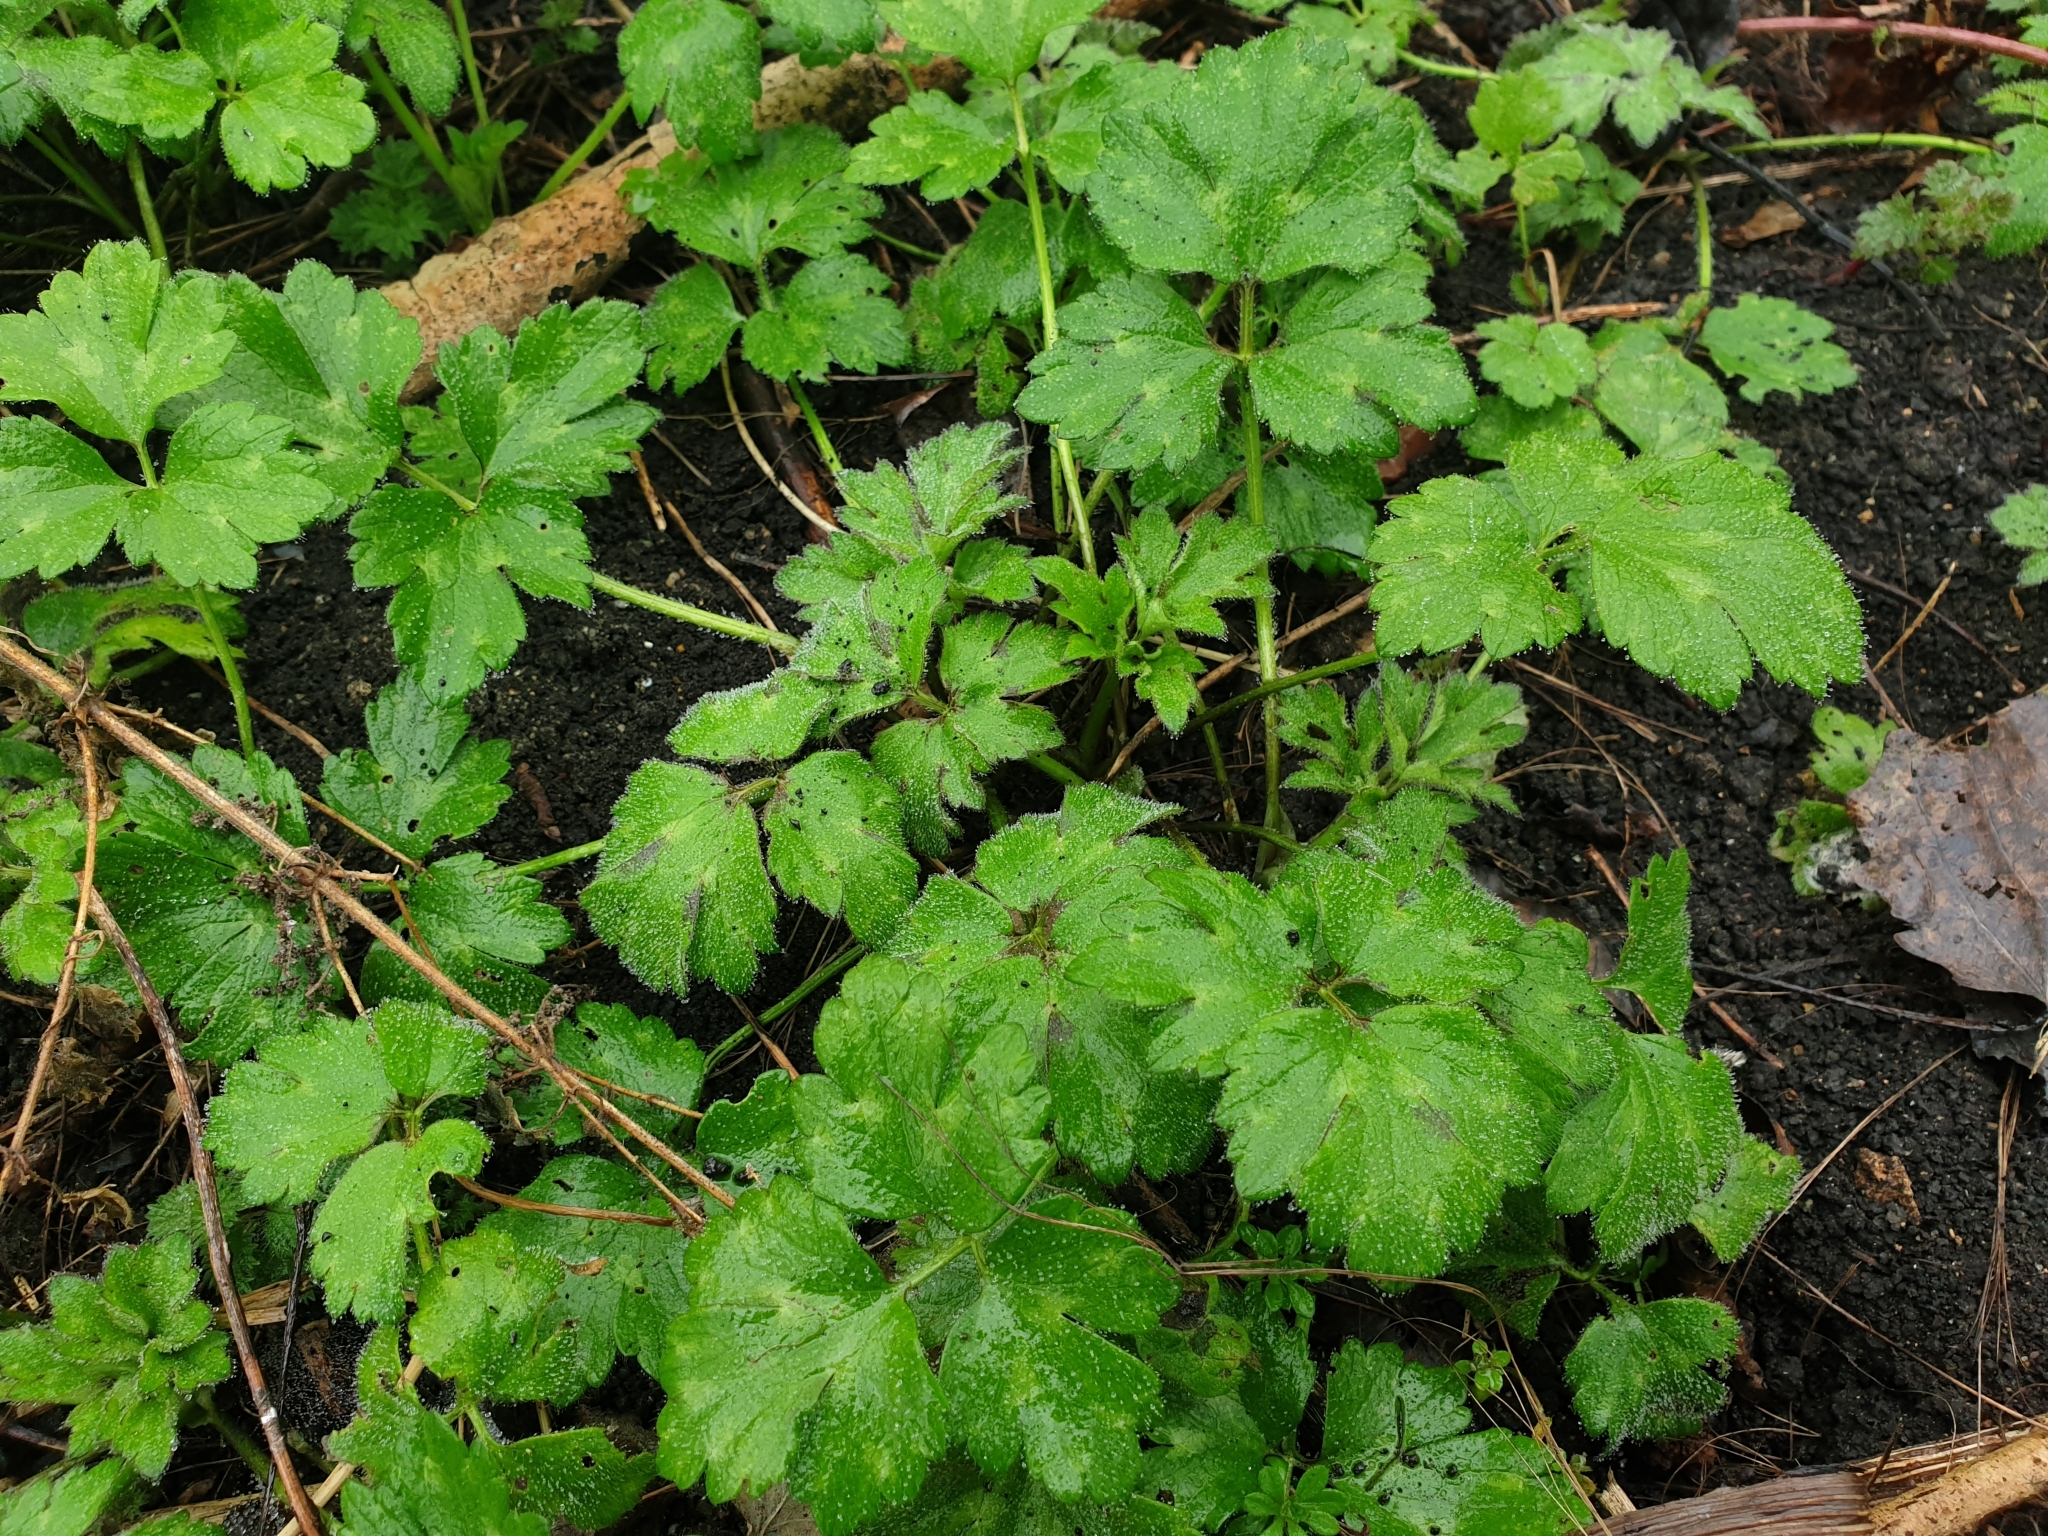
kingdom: Plantae
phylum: Tracheophyta
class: Magnoliopsida
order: Ranunculales
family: Ranunculaceae
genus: Ranunculus
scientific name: Ranunculus repens
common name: Creeping buttercup
